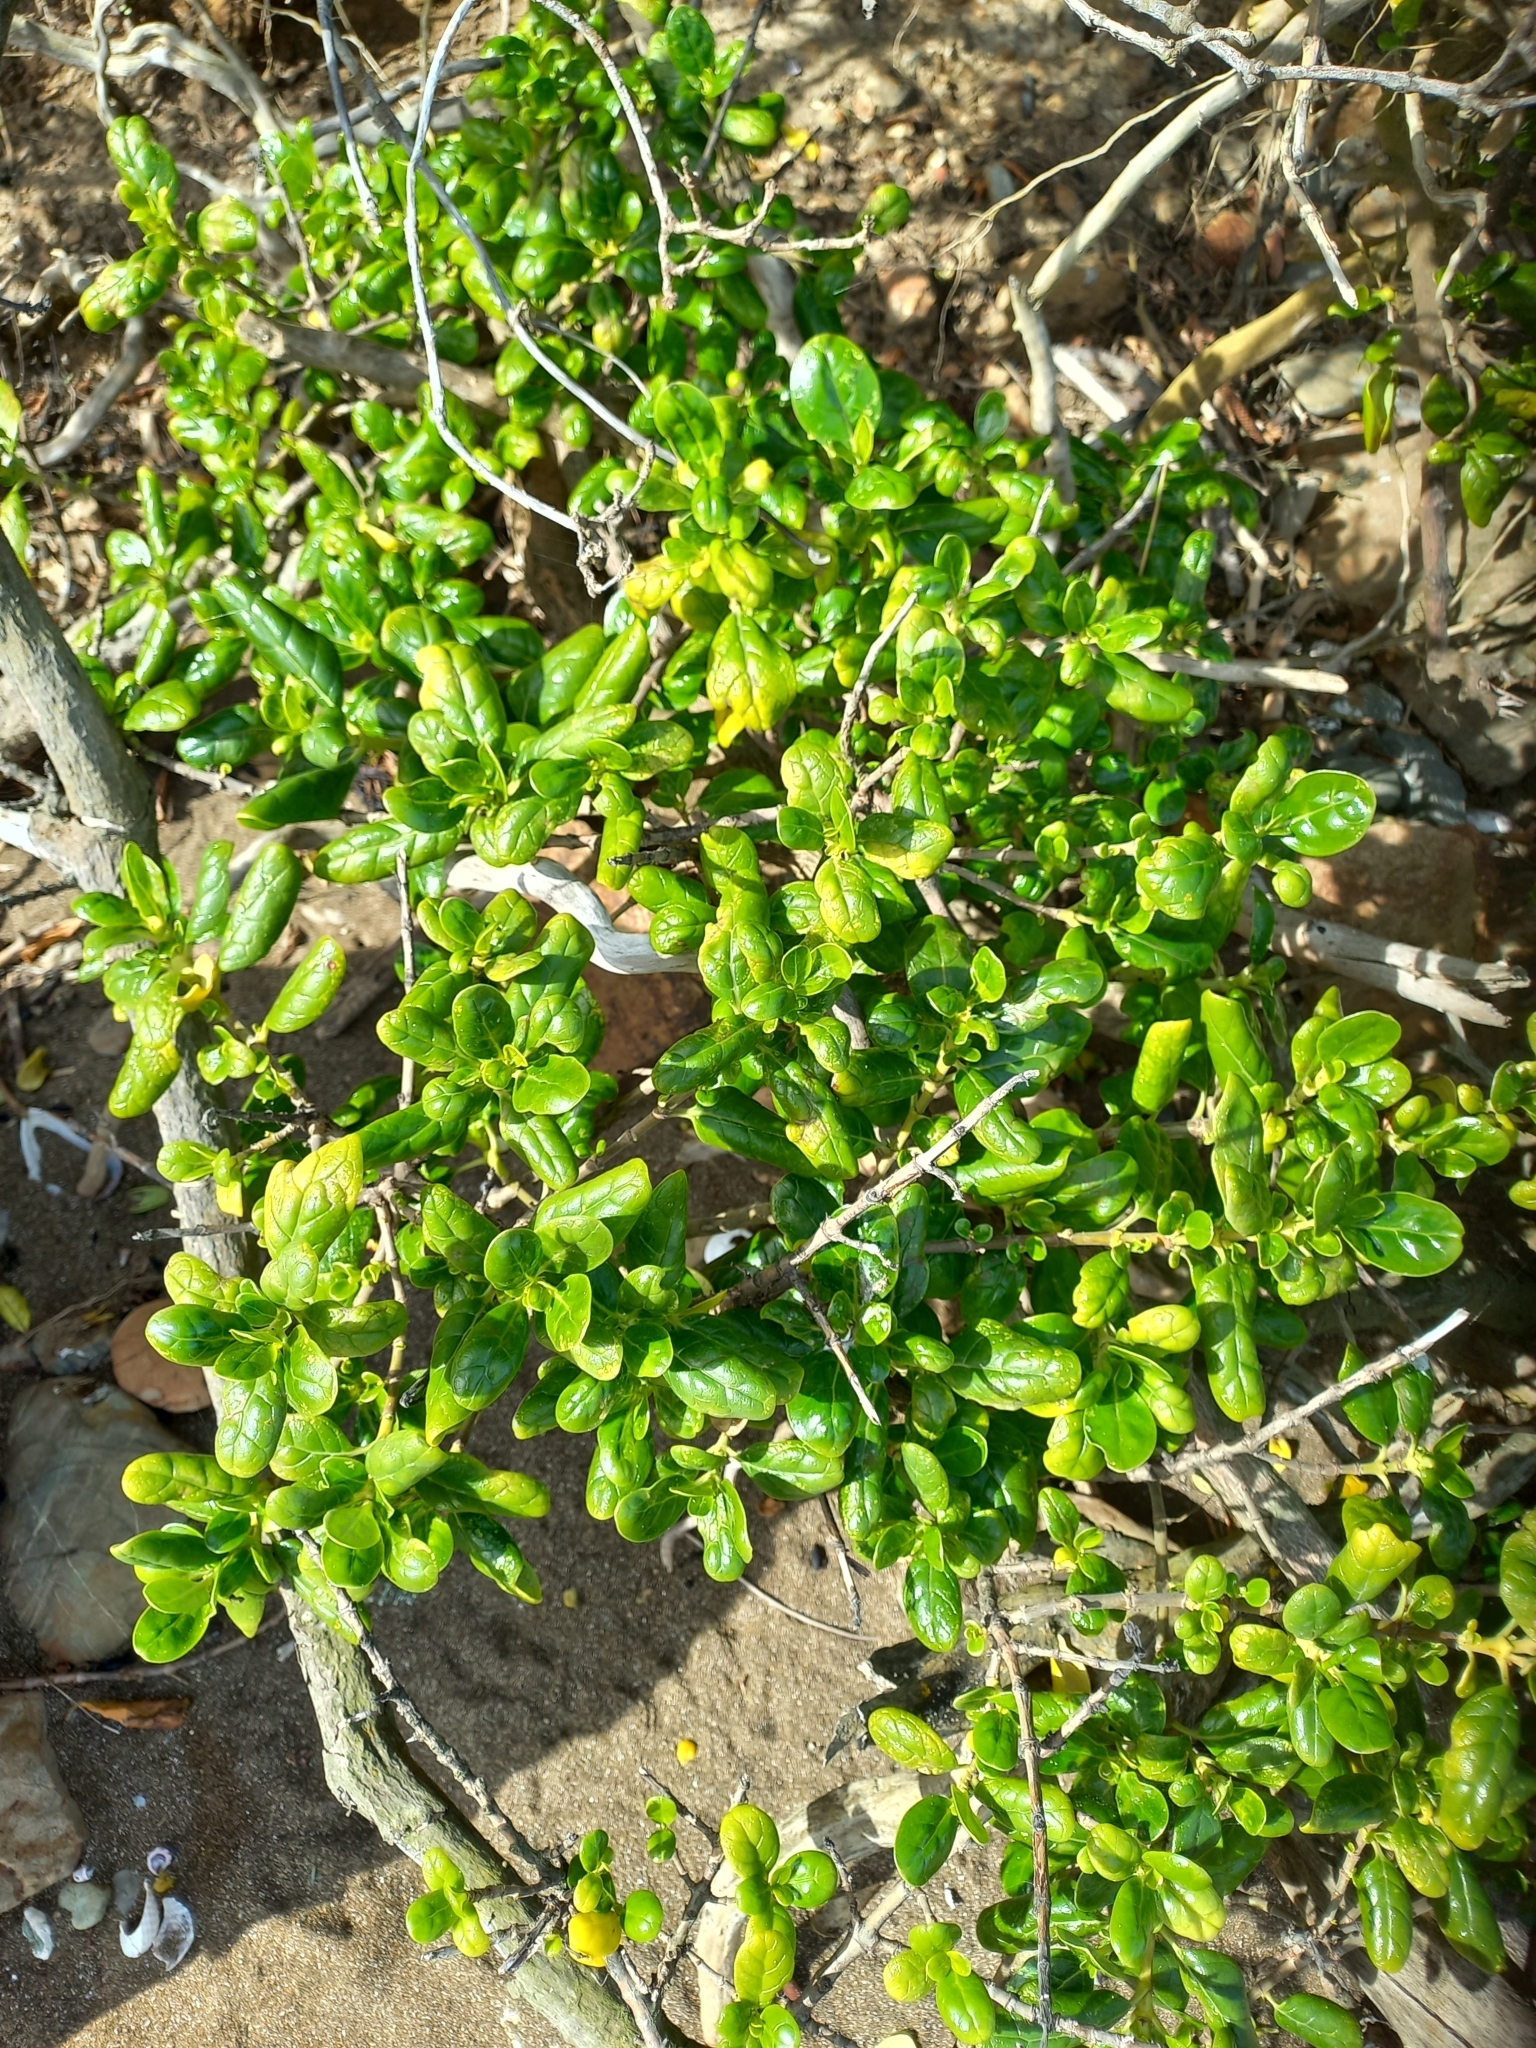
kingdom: Plantae
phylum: Tracheophyta
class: Magnoliopsida
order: Gentianales
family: Rubiaceae
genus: Coprosma
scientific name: Coprosma repens
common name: Tree bedstraw
